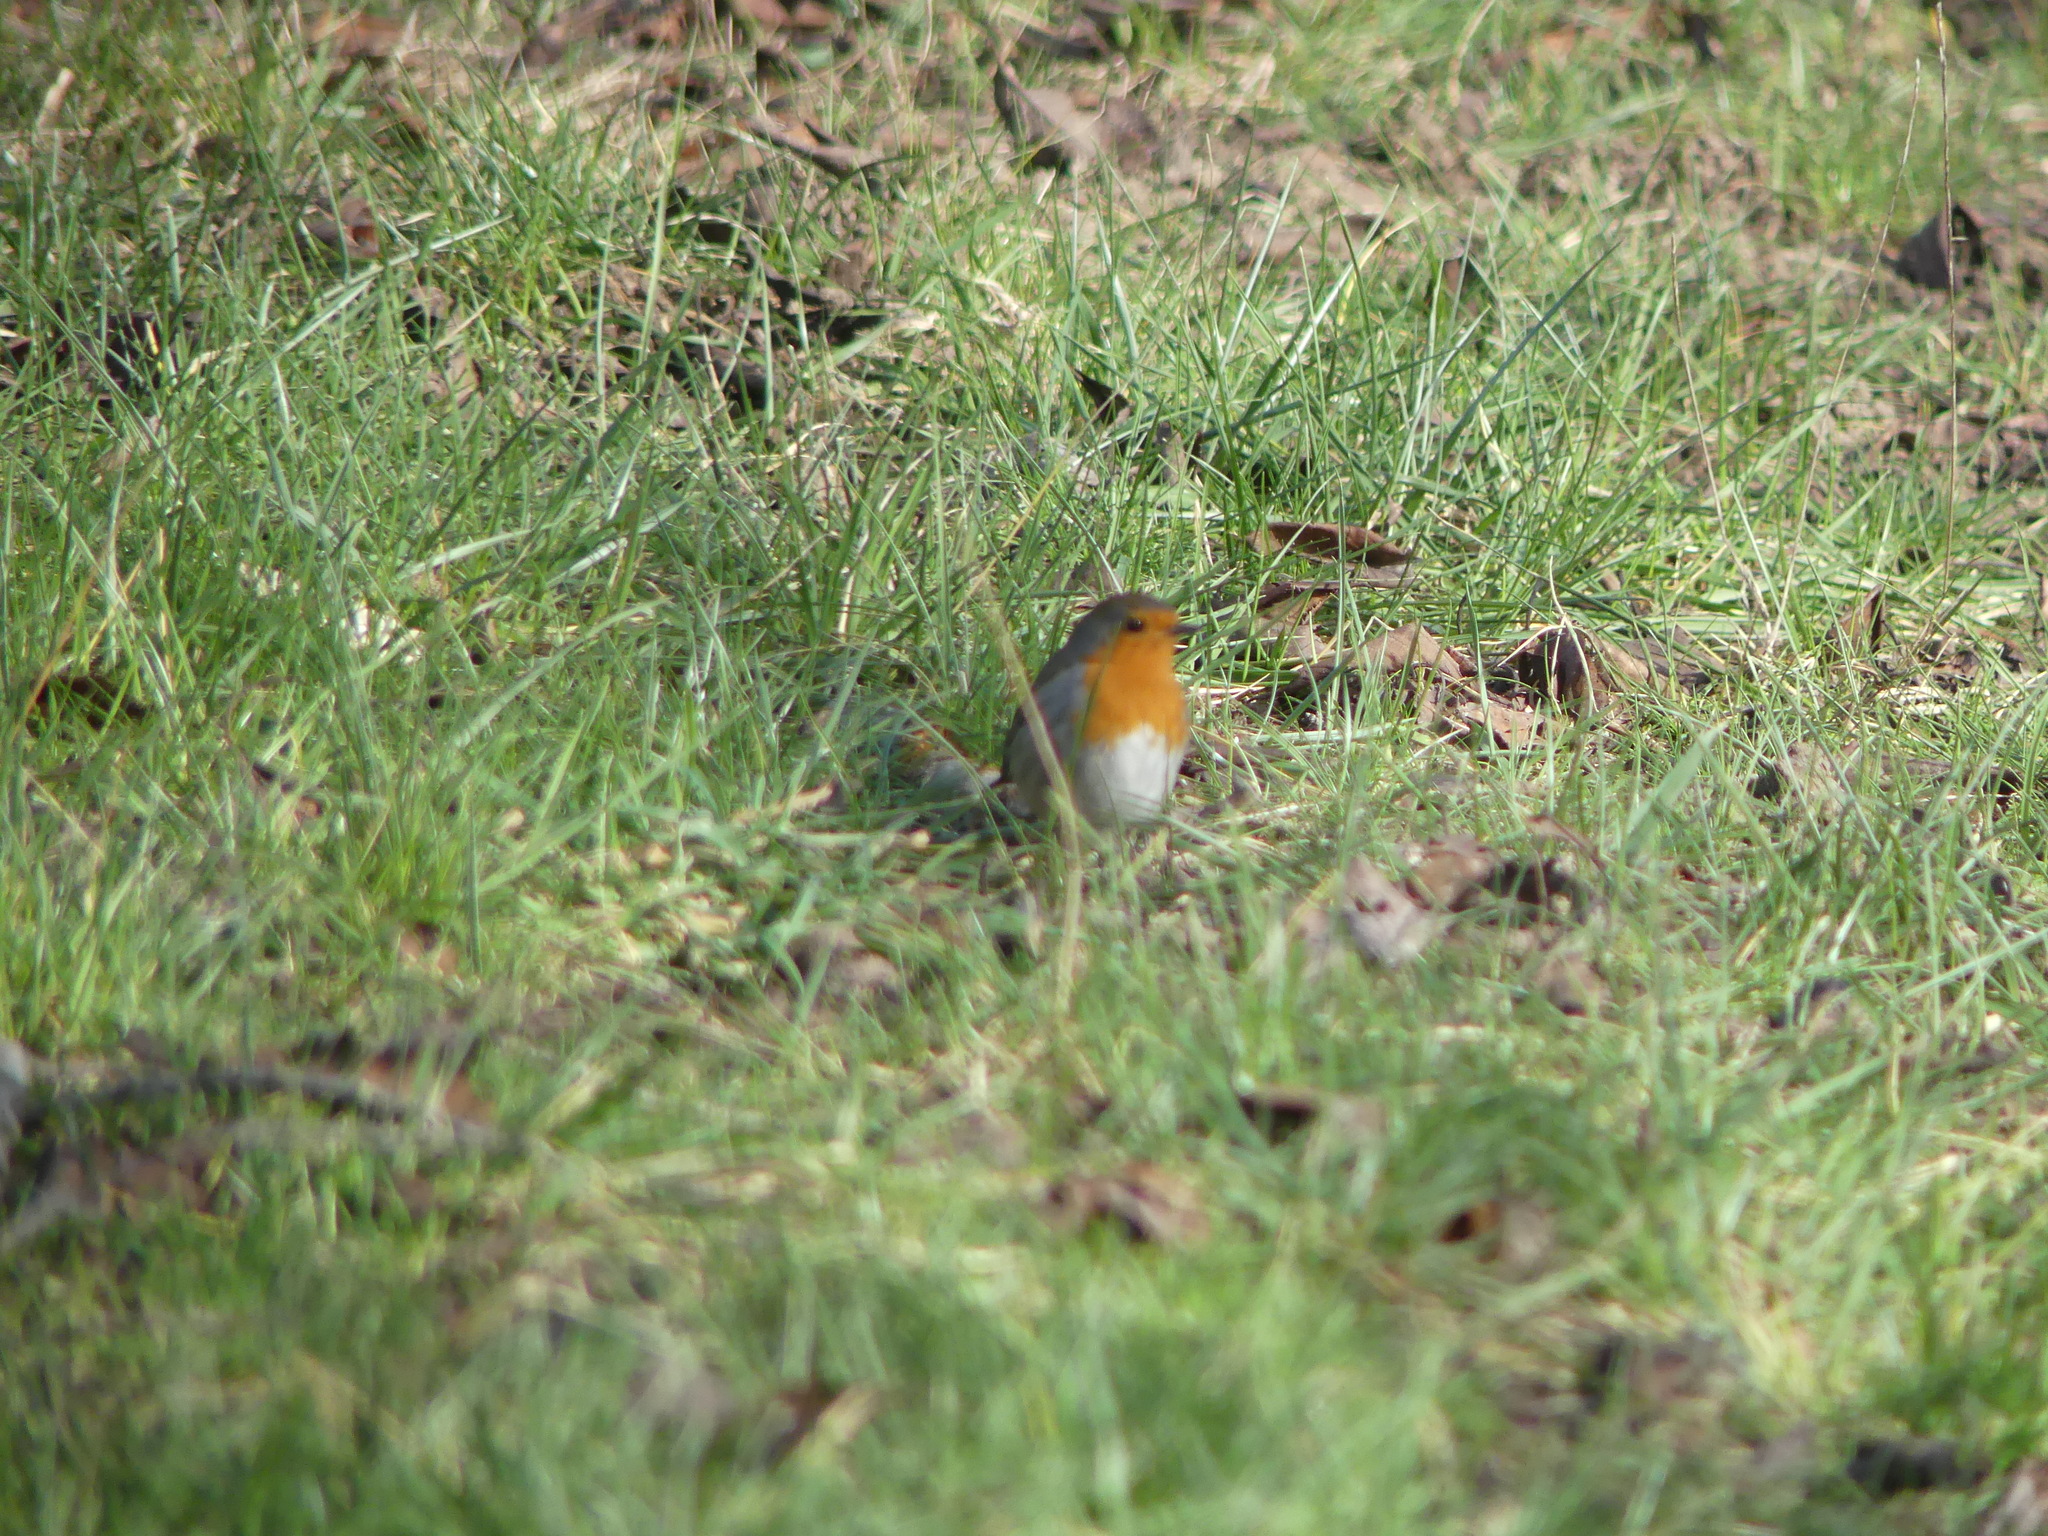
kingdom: Animalia
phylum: Chordata
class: Aves
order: Passeriformes
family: Muscicapidae
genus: Erithacus
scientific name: Erithacus rubecula
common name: European robin
